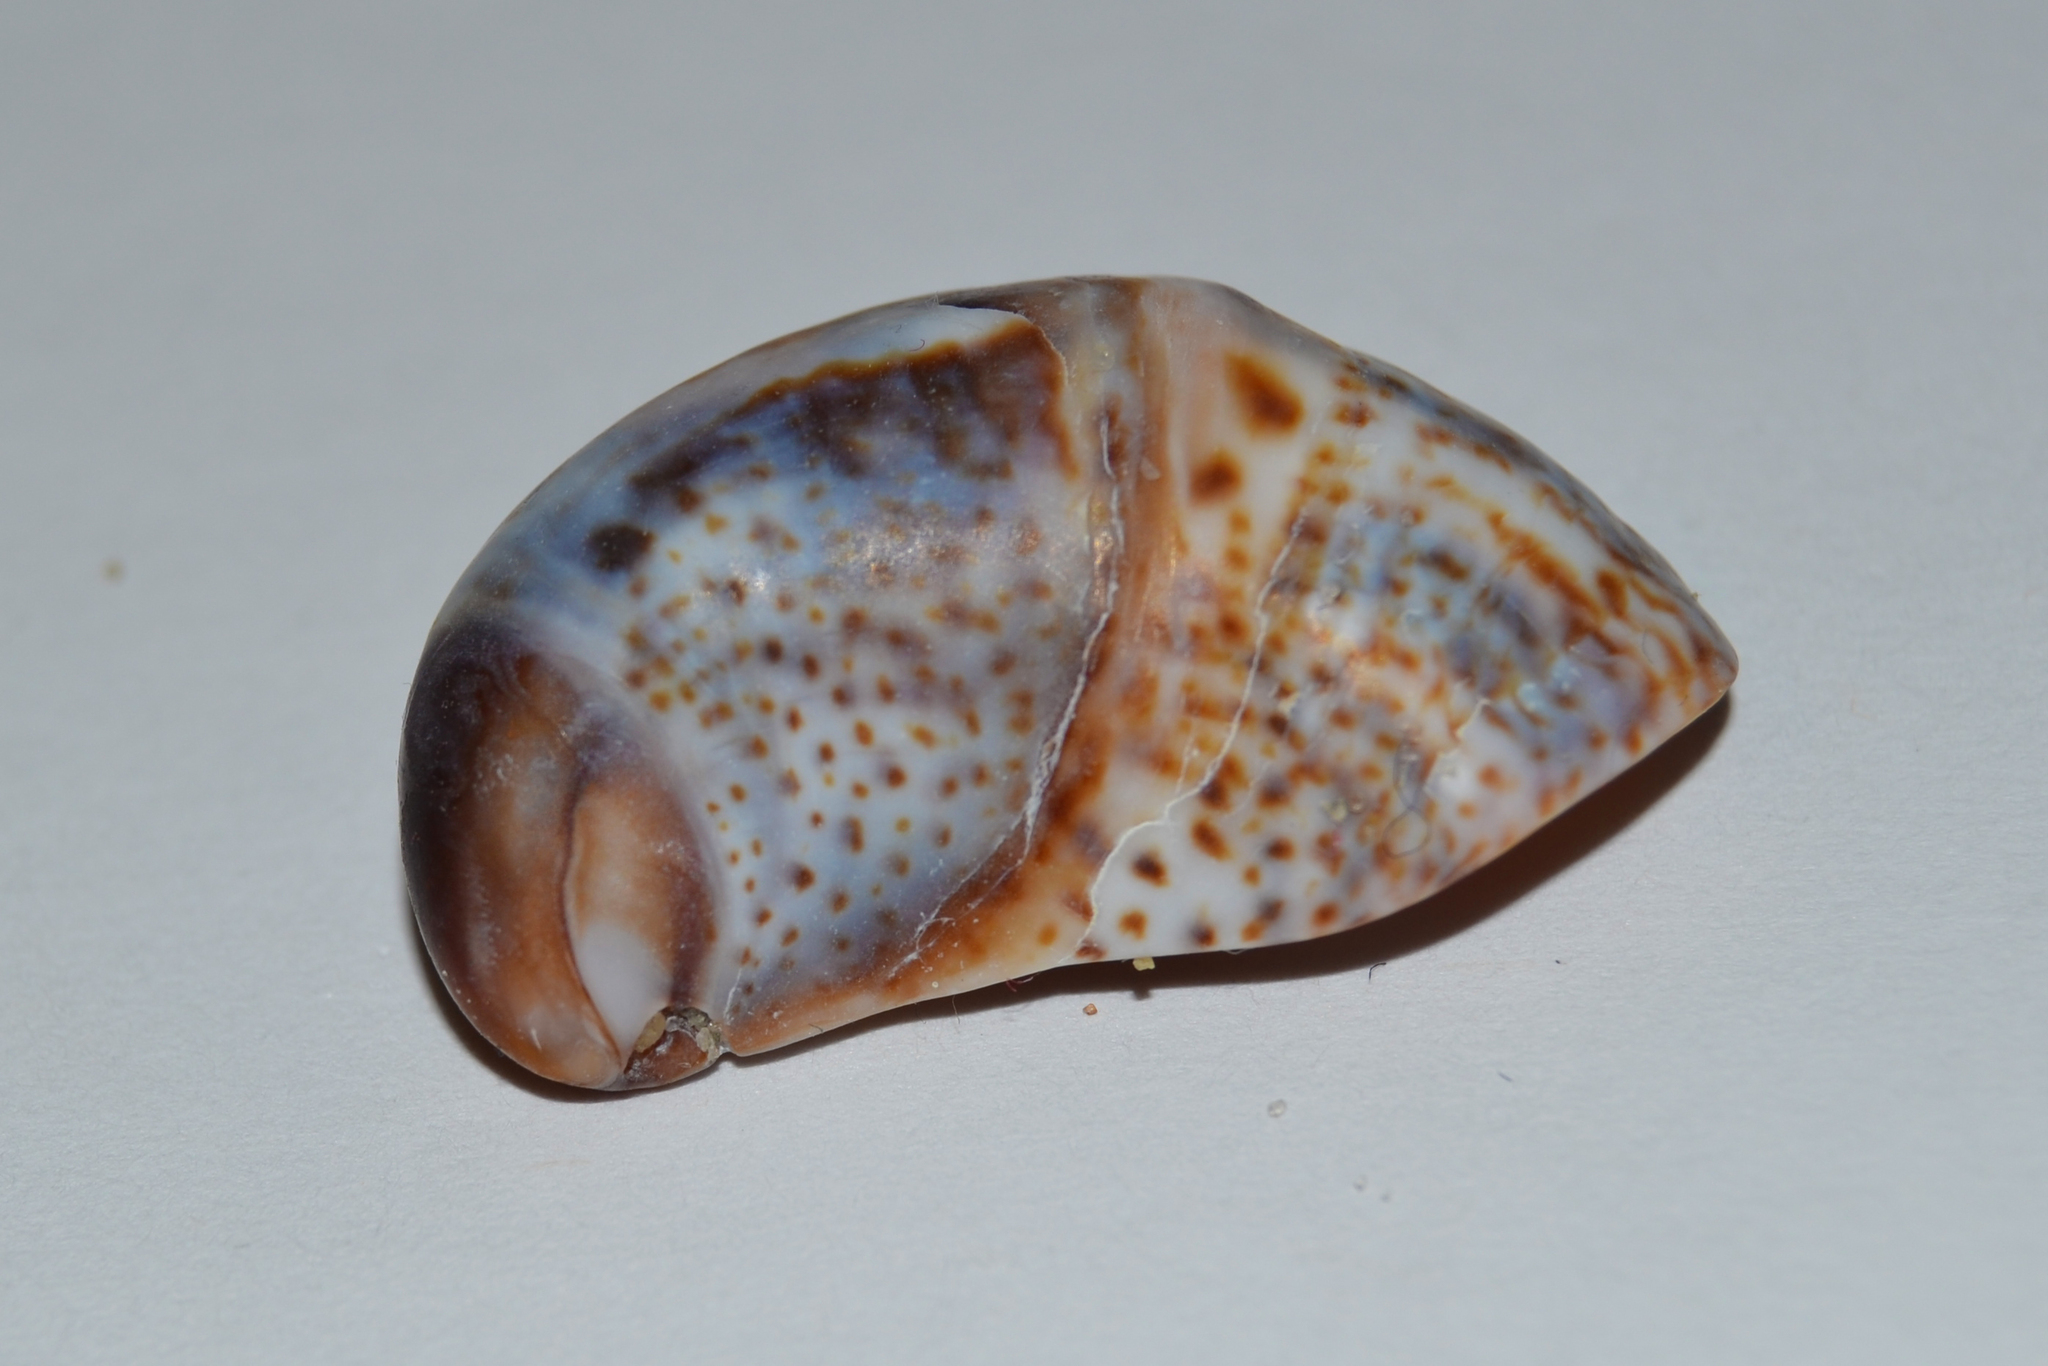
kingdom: Animalia
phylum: Mollusca
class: Gastropoda
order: Littorinimorpha
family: Calyptraeidae
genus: Crepidula
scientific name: Crepidula fornicata
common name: Slipper limpet
